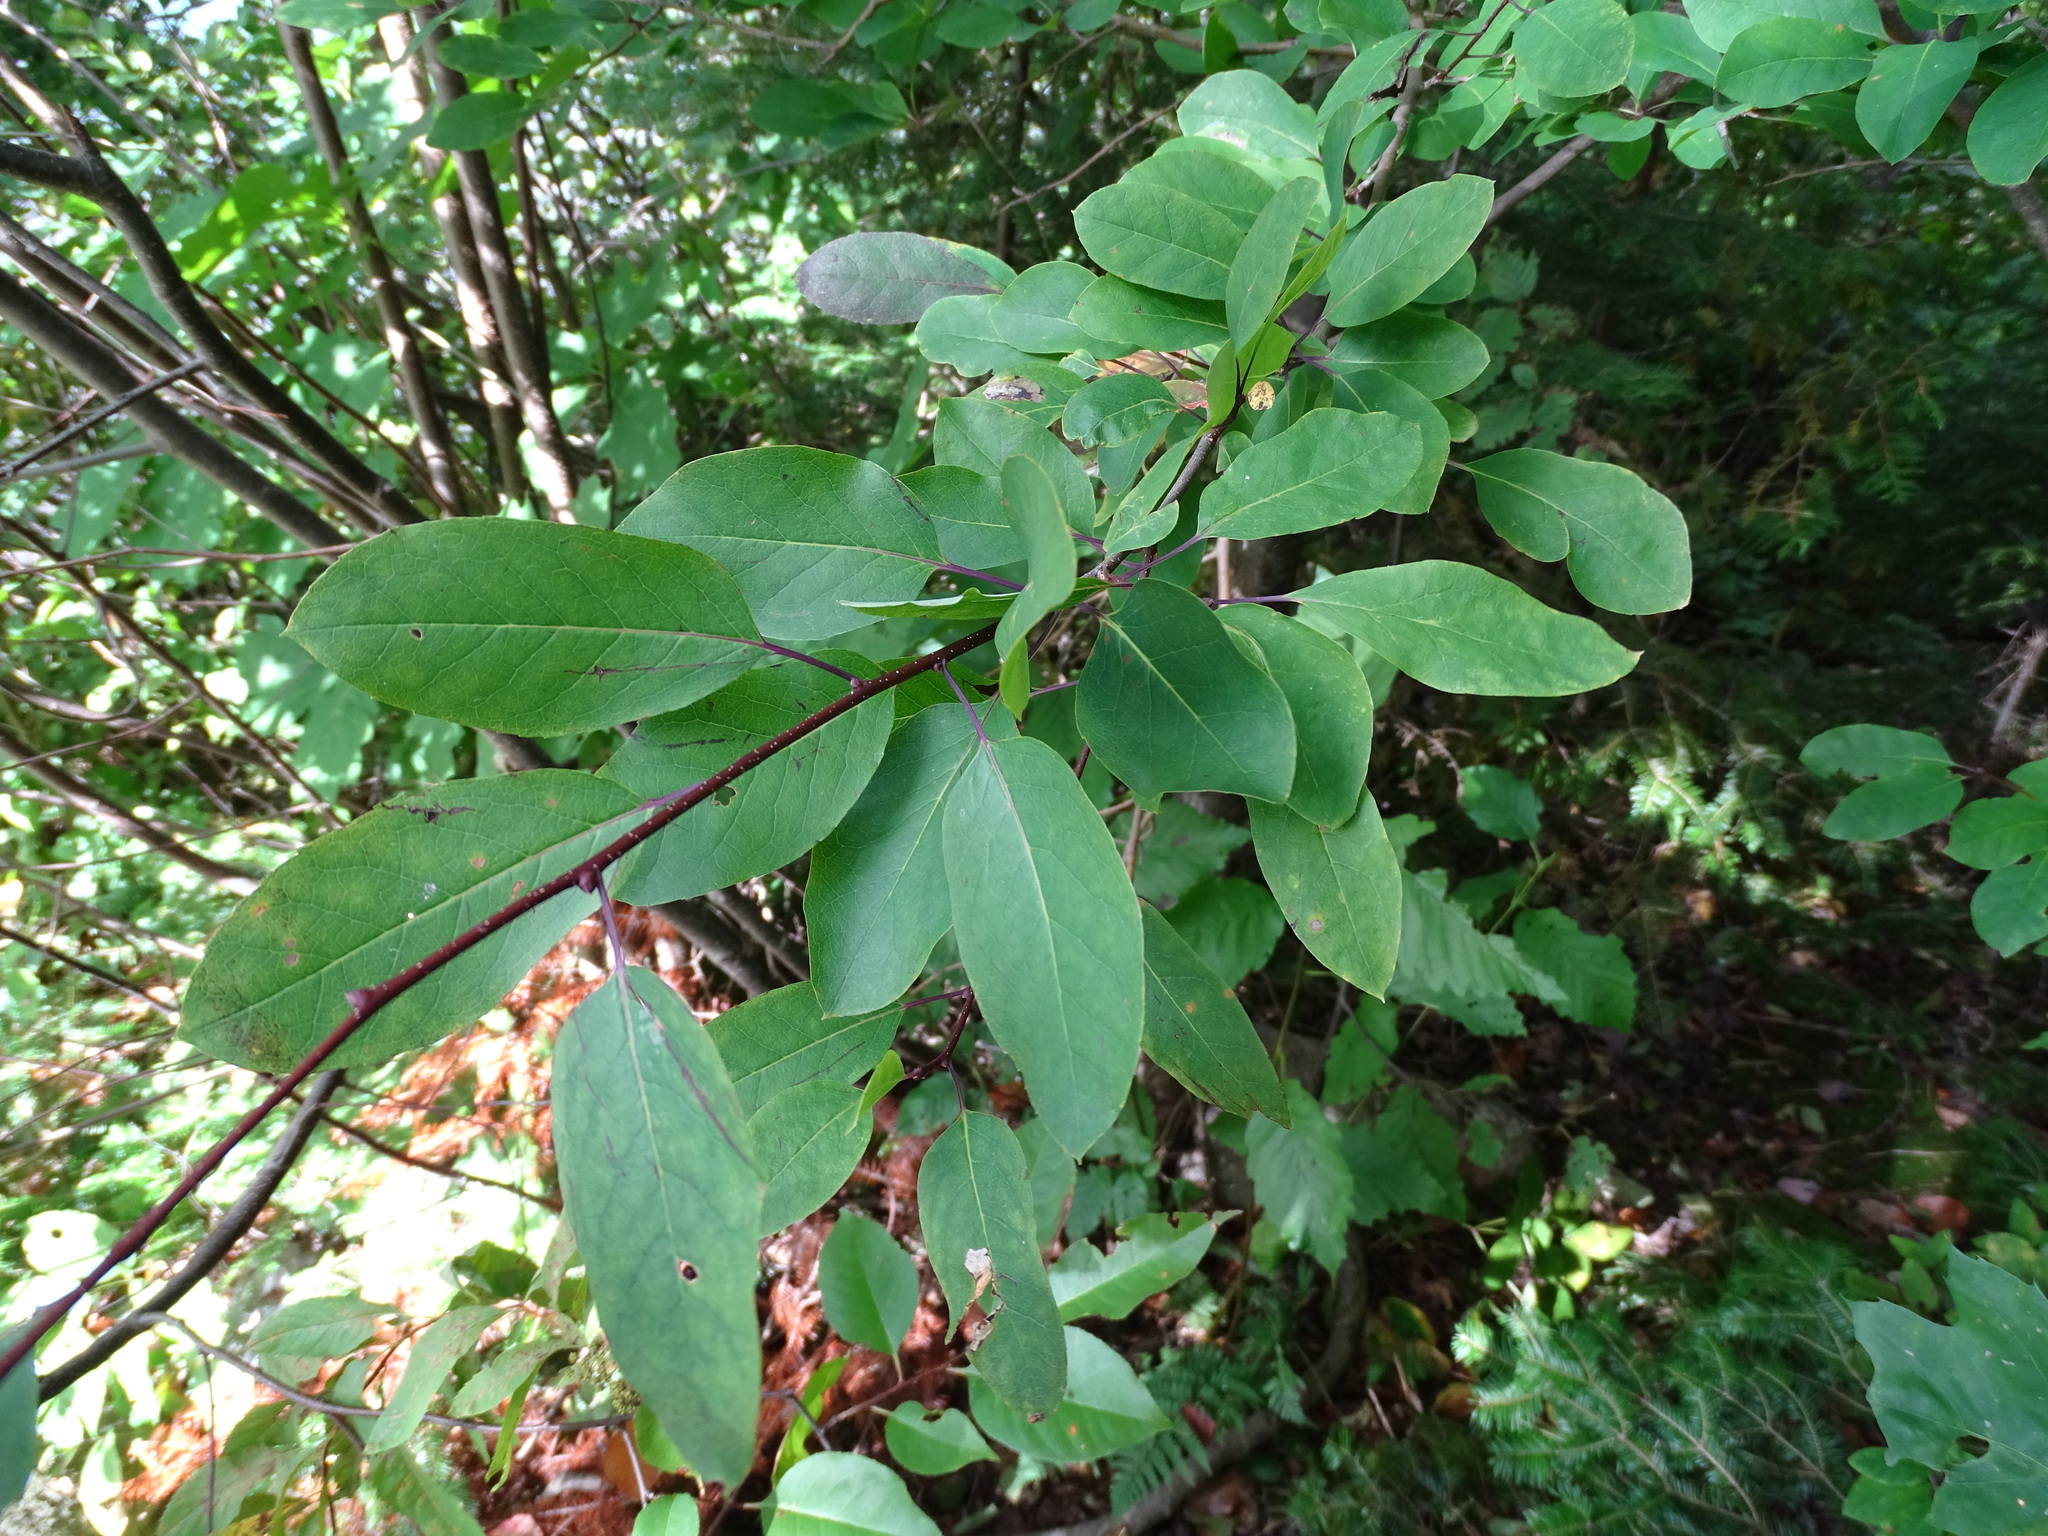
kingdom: Plantae
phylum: Tracheophyta
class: Magnoliopsida
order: Aquifoliales
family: Aquifoliaceae
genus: Ilex
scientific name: Ilex mucronata
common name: Catberry
